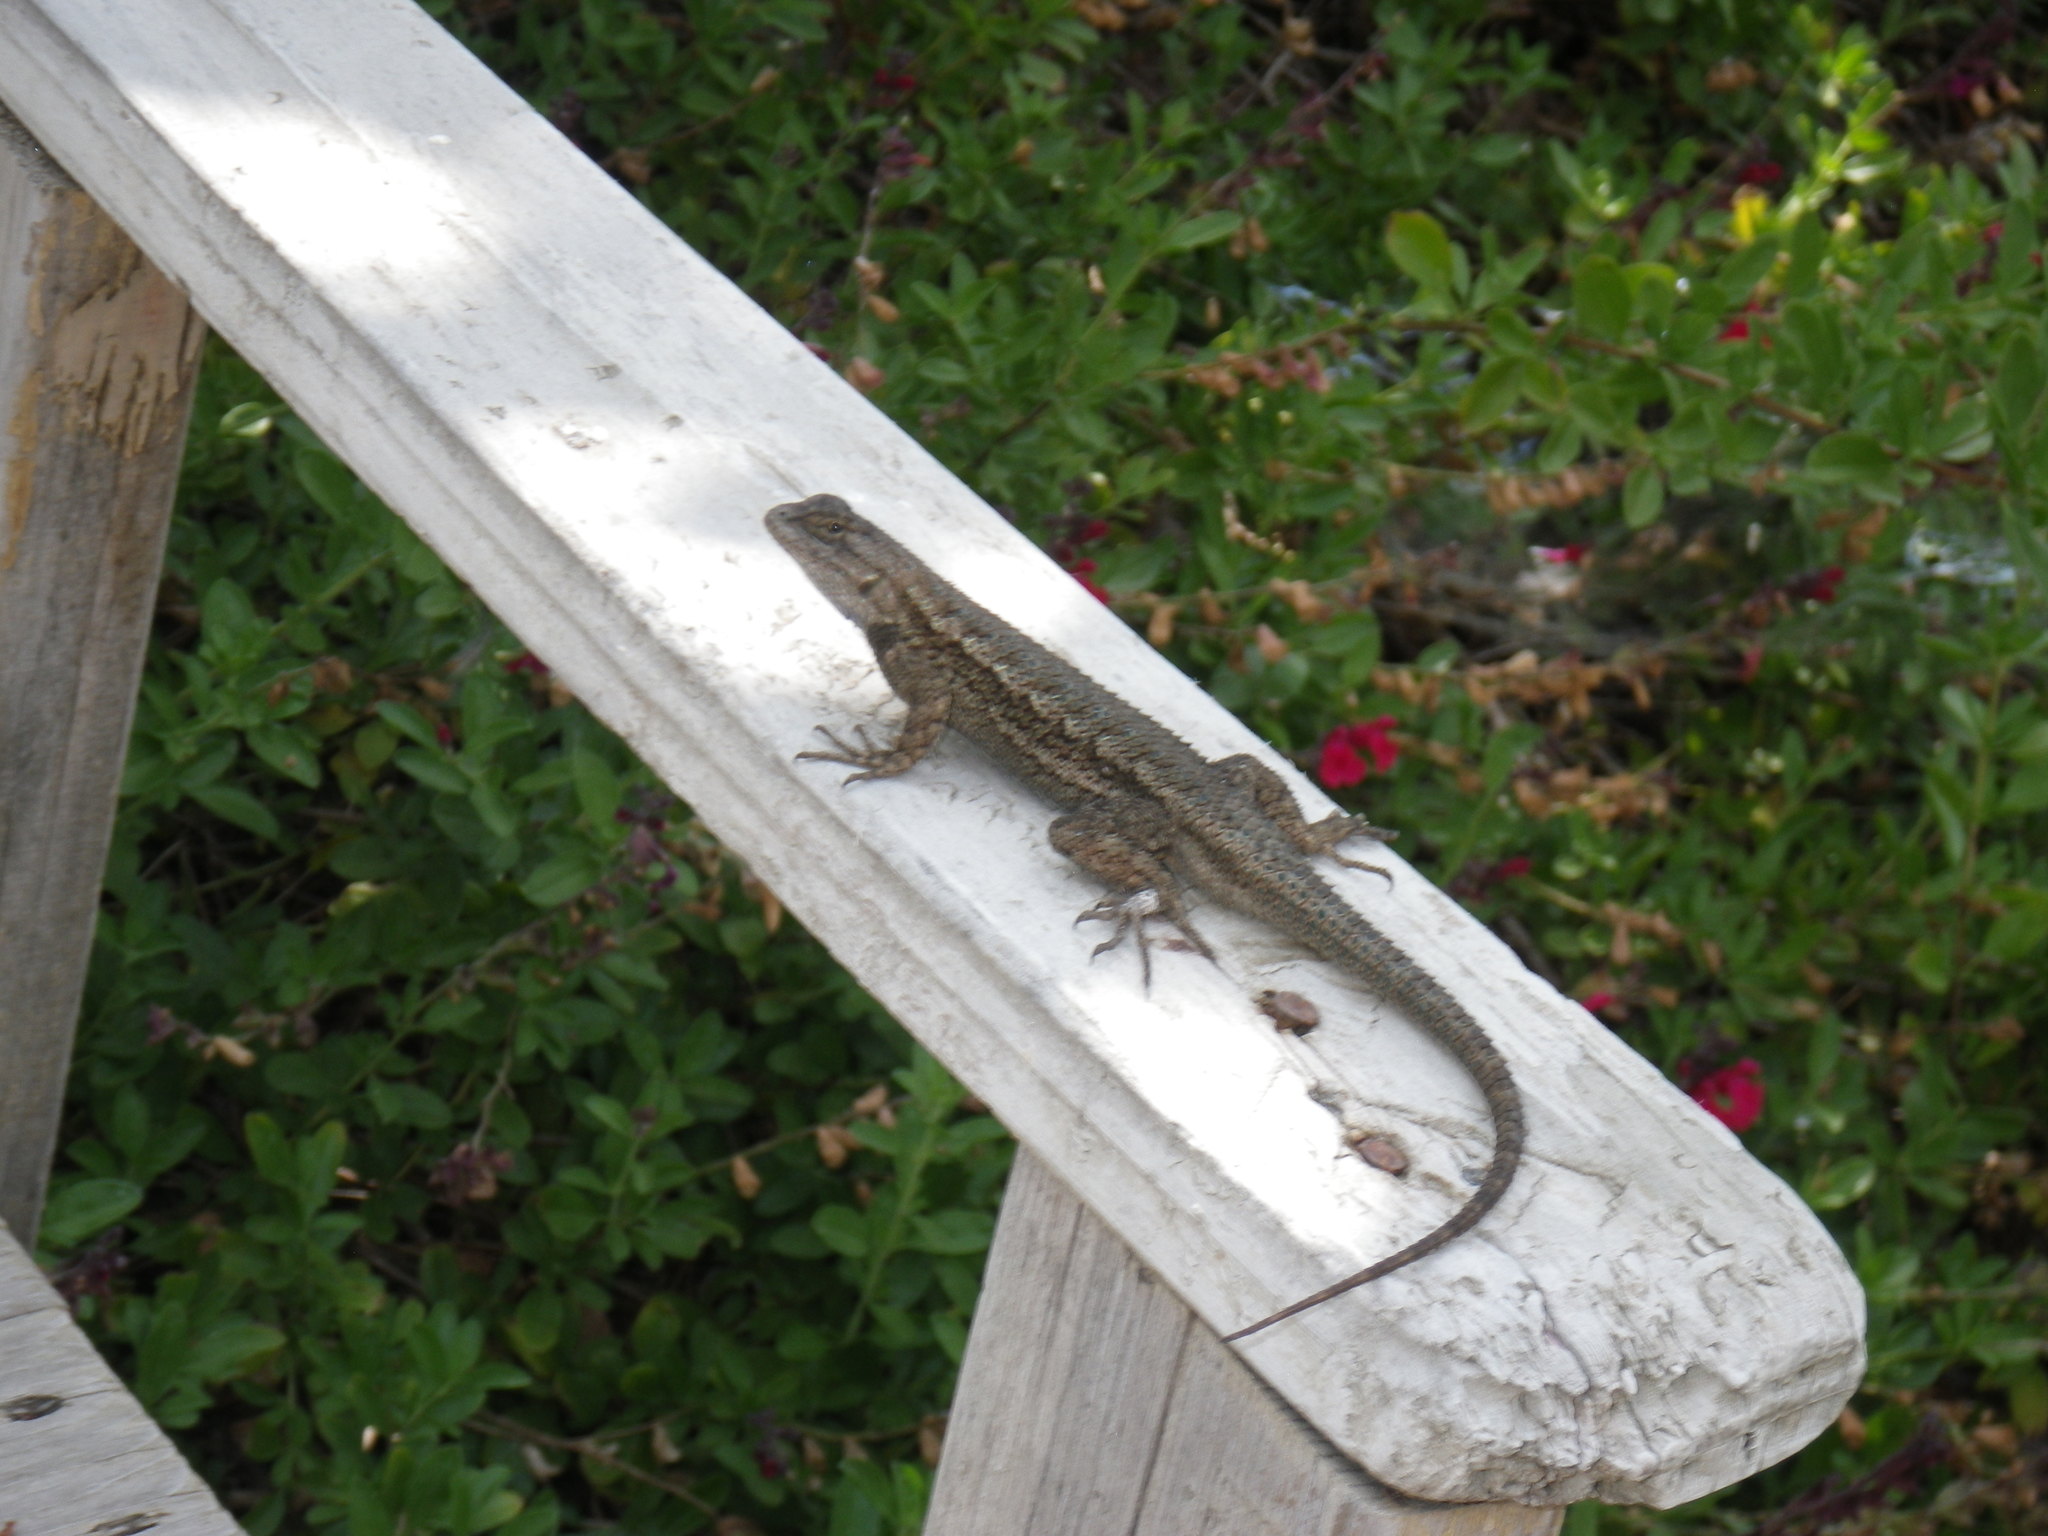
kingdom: Animalia
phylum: Chordata
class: Squamata
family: Phrynosomatidae
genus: Sceloporus
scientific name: Sceloporus occidentalis
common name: Western fence lizard
